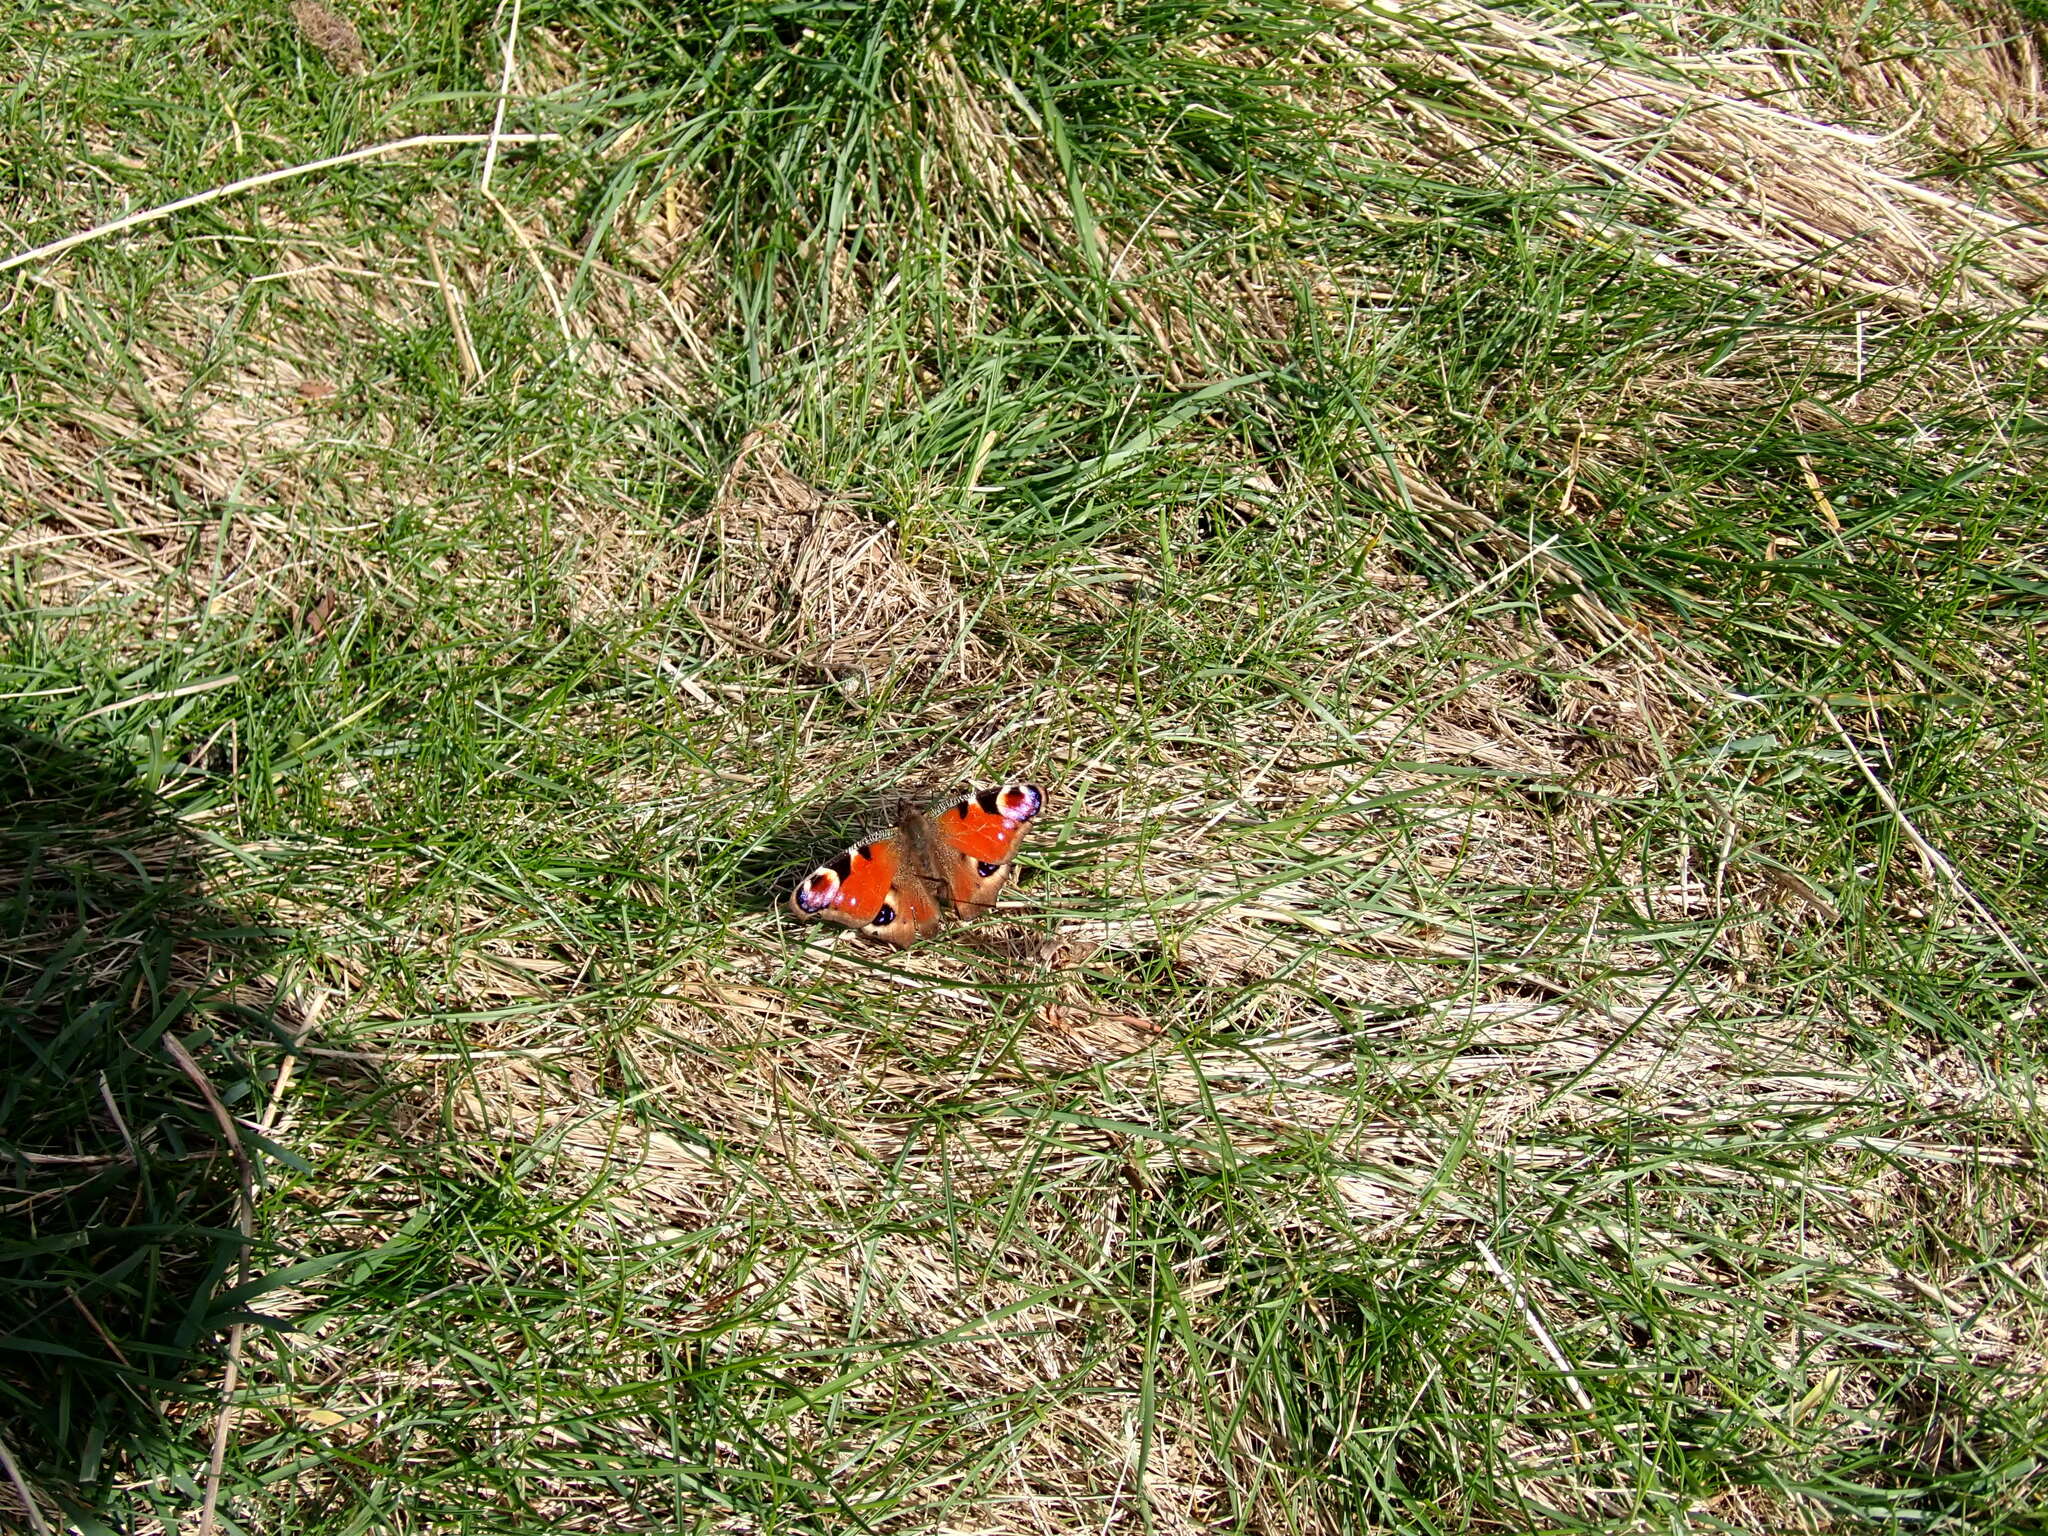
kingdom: Animalia
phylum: Arthropoda
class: Insecta
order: Lepidoptera
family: Nymphalidae
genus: Aglais
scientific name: Aglais io
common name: Peacock
